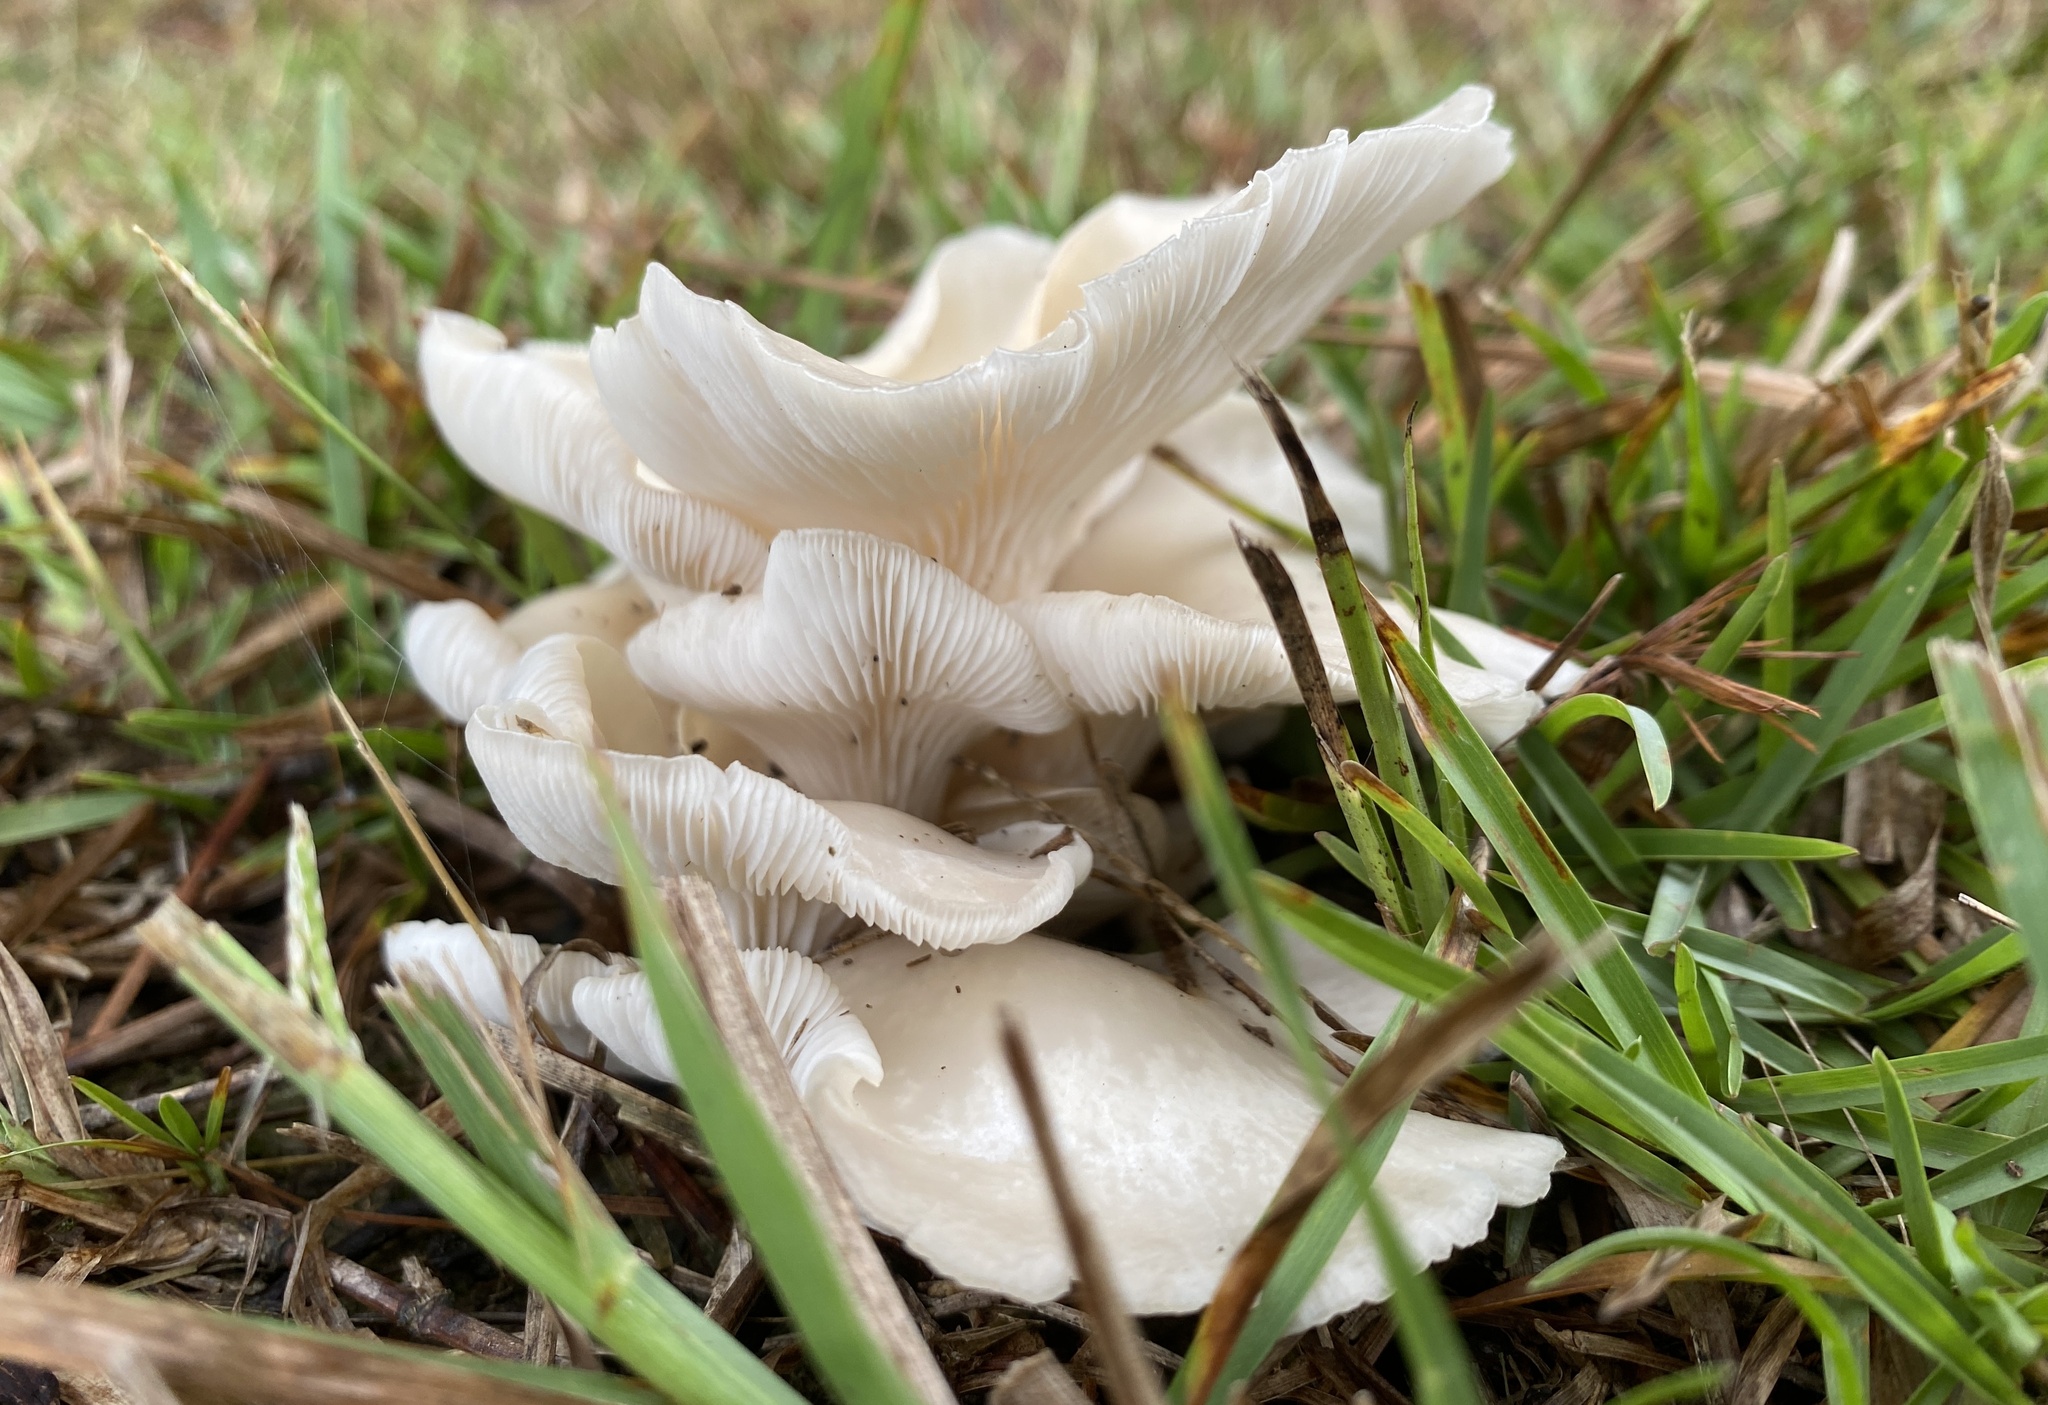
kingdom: Fungi
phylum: Basidiomycota
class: Agaricomycetes
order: Agaricales
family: Pleurotaceae
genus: Pleurotus
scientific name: Pleurotus pulmonarius
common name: Pale oyster
